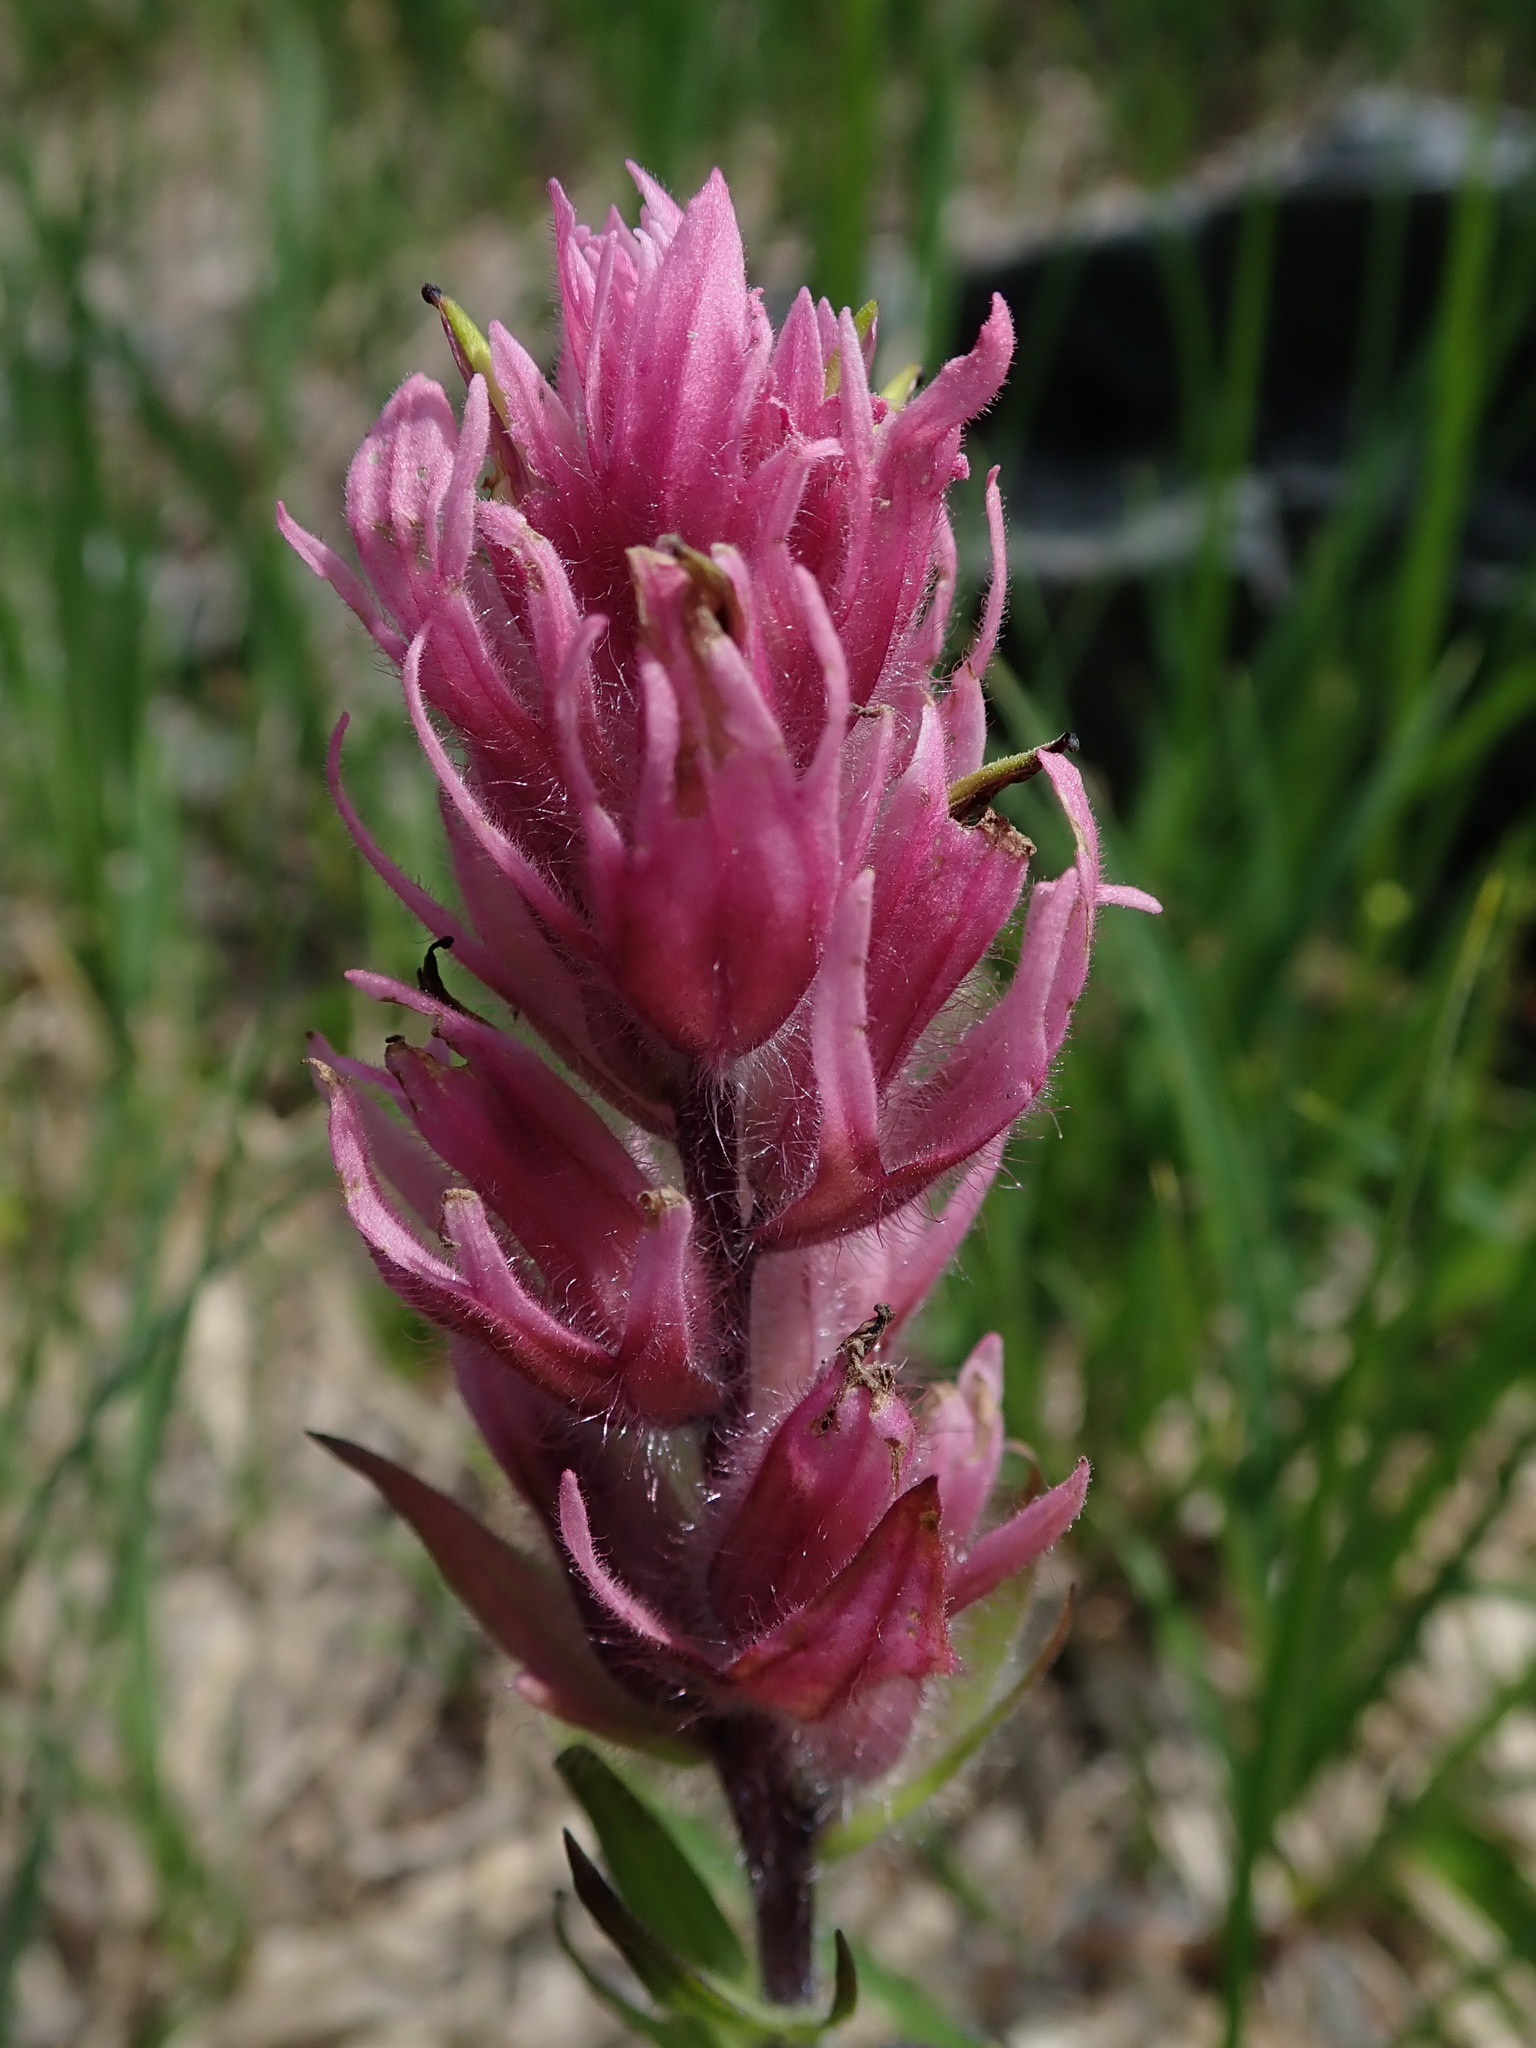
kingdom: Plantae
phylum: Tracheophyta
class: Magnoliopsida
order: Lamiales
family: Orobanchaceae
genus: Castilleja
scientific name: Castilleja parviflora
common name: Mountain paintbrush
